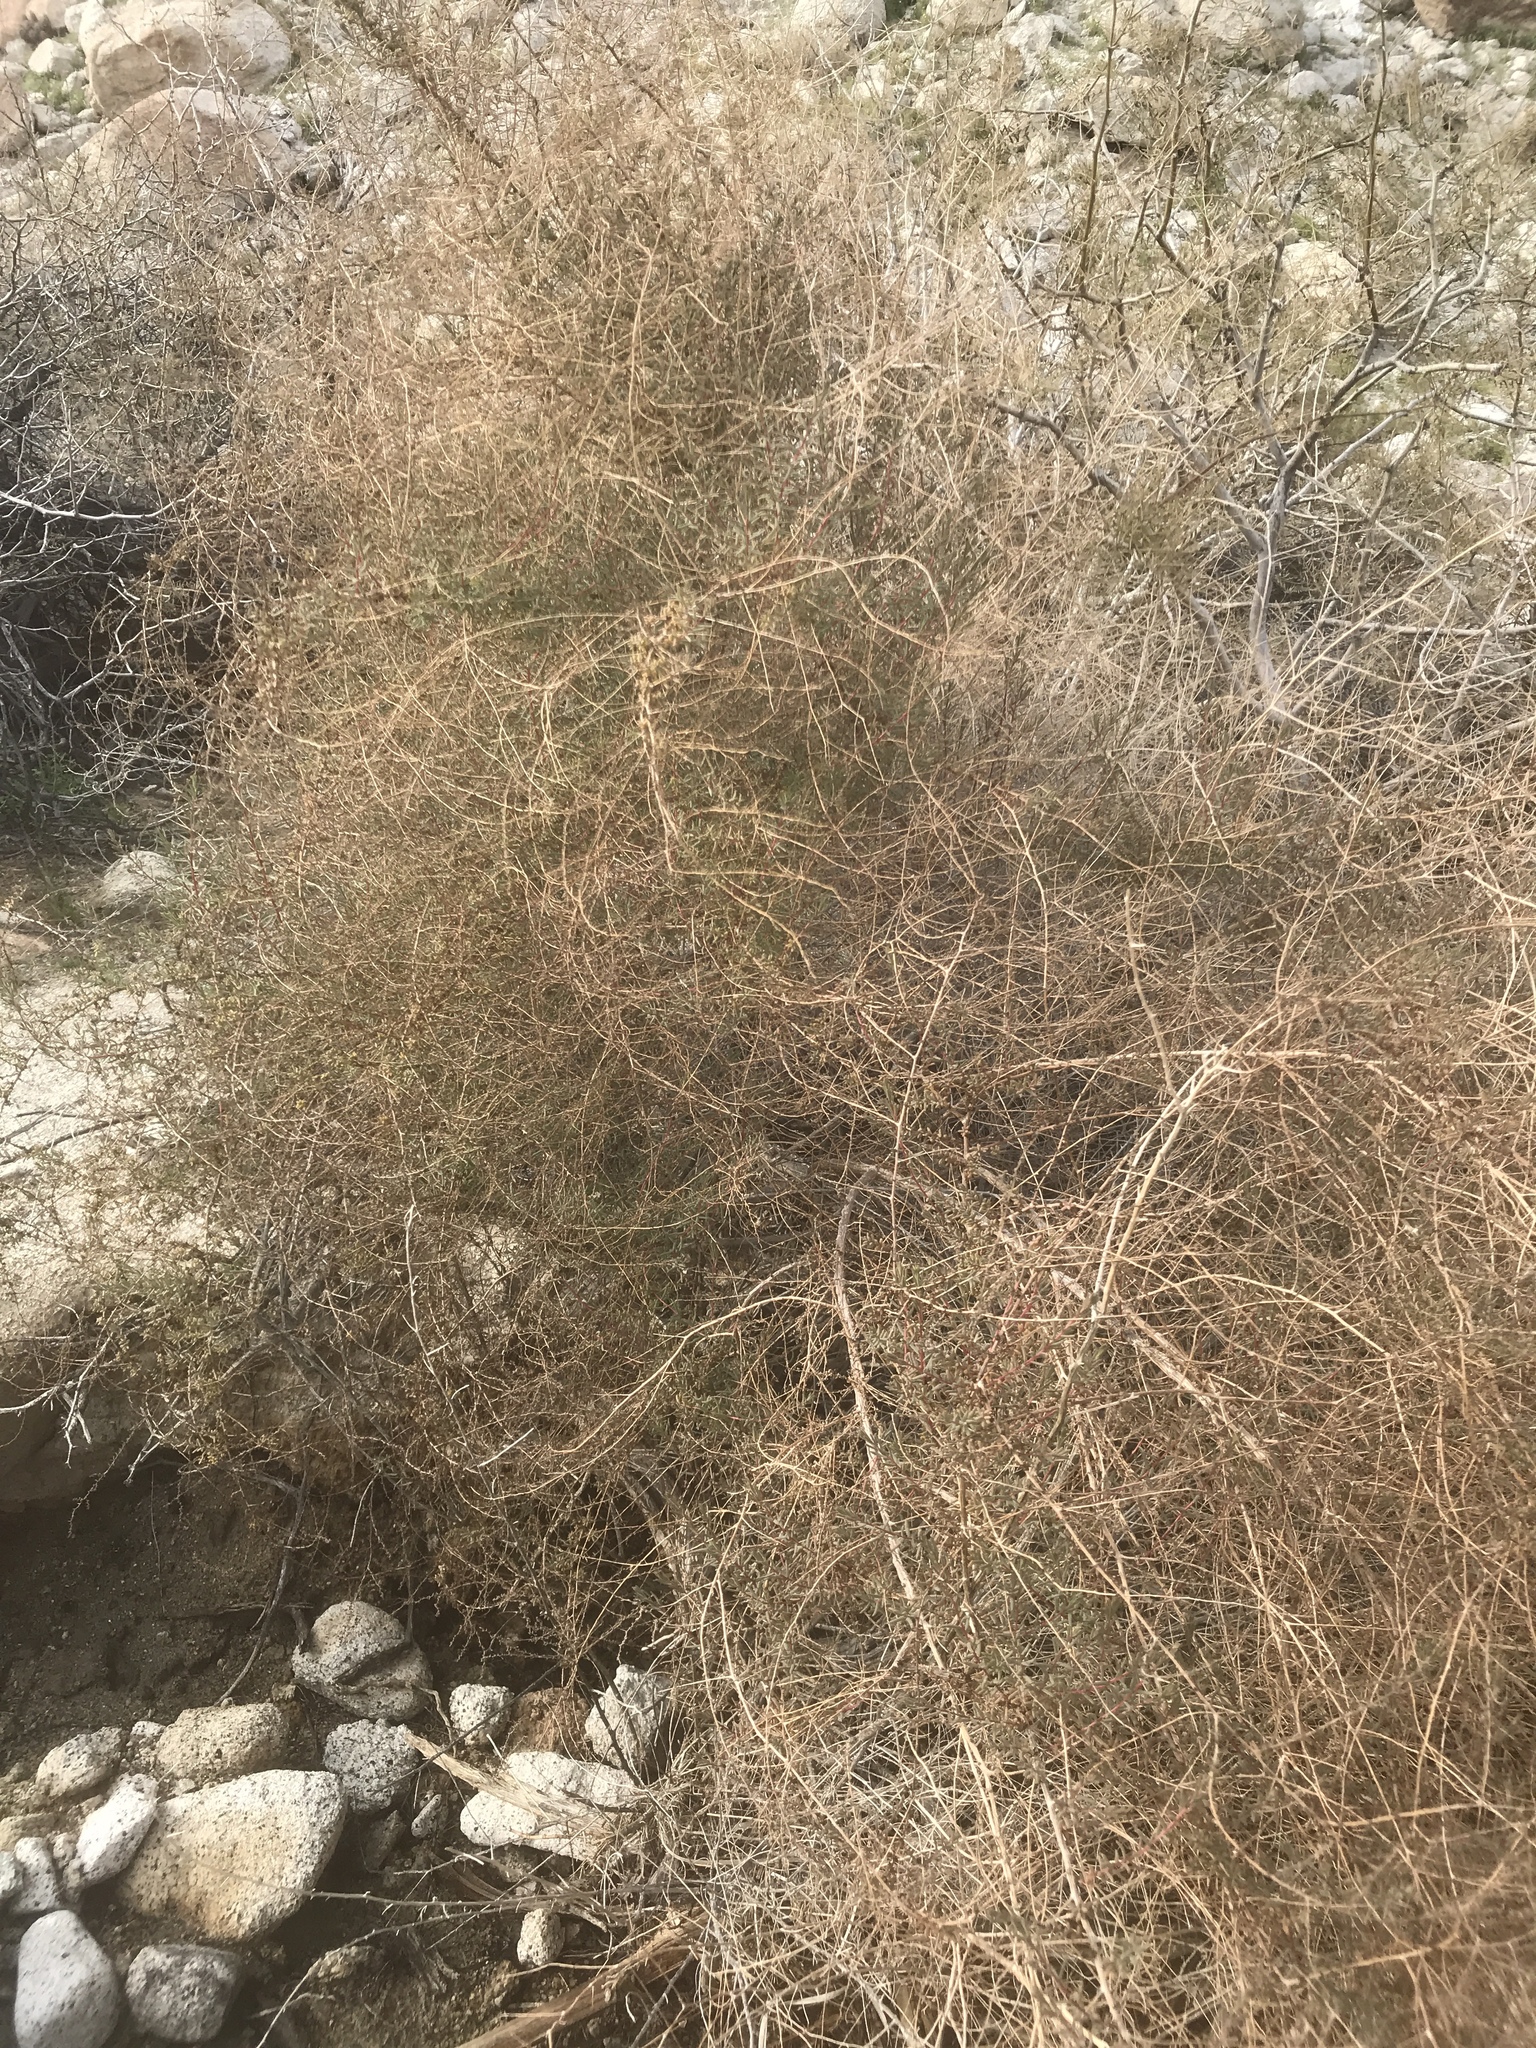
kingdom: Plantae
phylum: Tracheophyta
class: Magnoliopsida
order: Caryophyllales
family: Amaranthaceae
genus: Suaeda
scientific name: Suaeda nigra
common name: Bush seepweed
